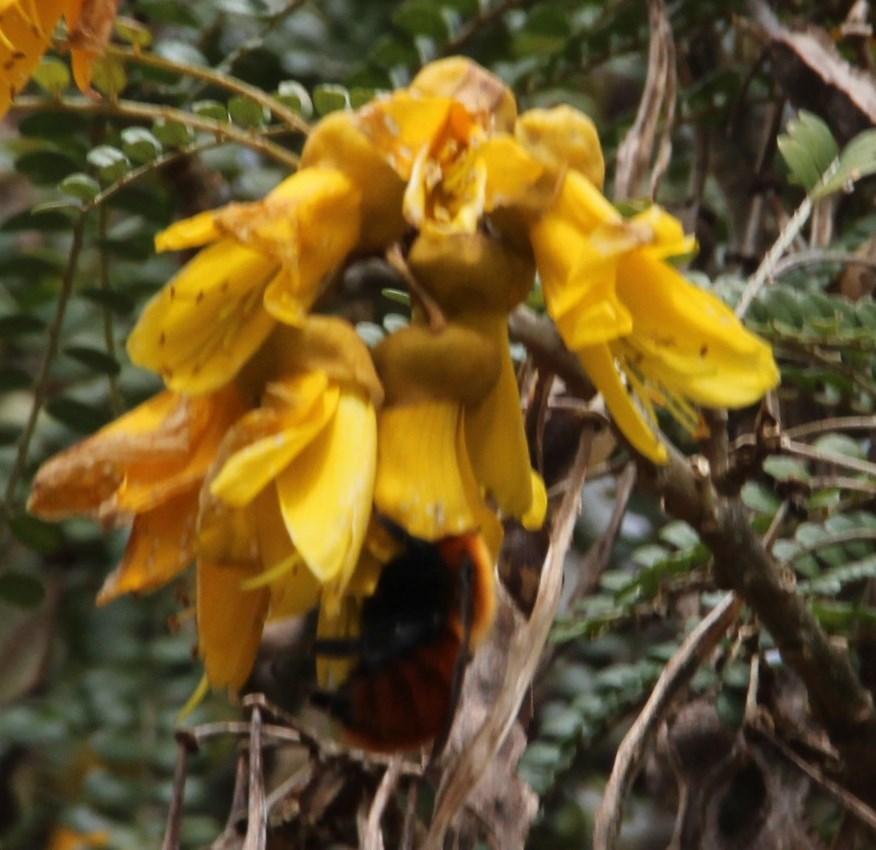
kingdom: Plantae
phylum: Tracheophyta
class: Magnoliopsida
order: Fabales
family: Fabaceae
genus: Sophora
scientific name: Sophora cassioides
